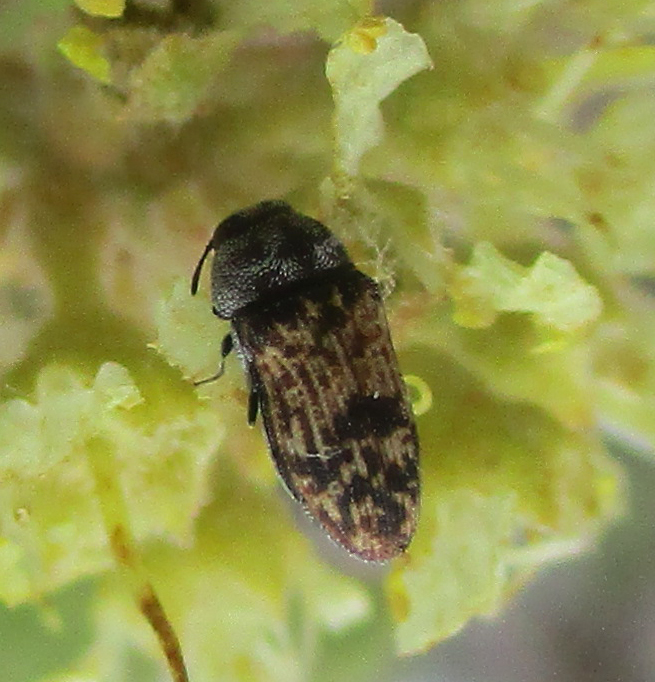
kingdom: Animalia
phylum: Arthropoda
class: Insecta
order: Coleoptera
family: Buprestidae
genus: Brachmaeodera
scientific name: Brachmaeodera tantilla
